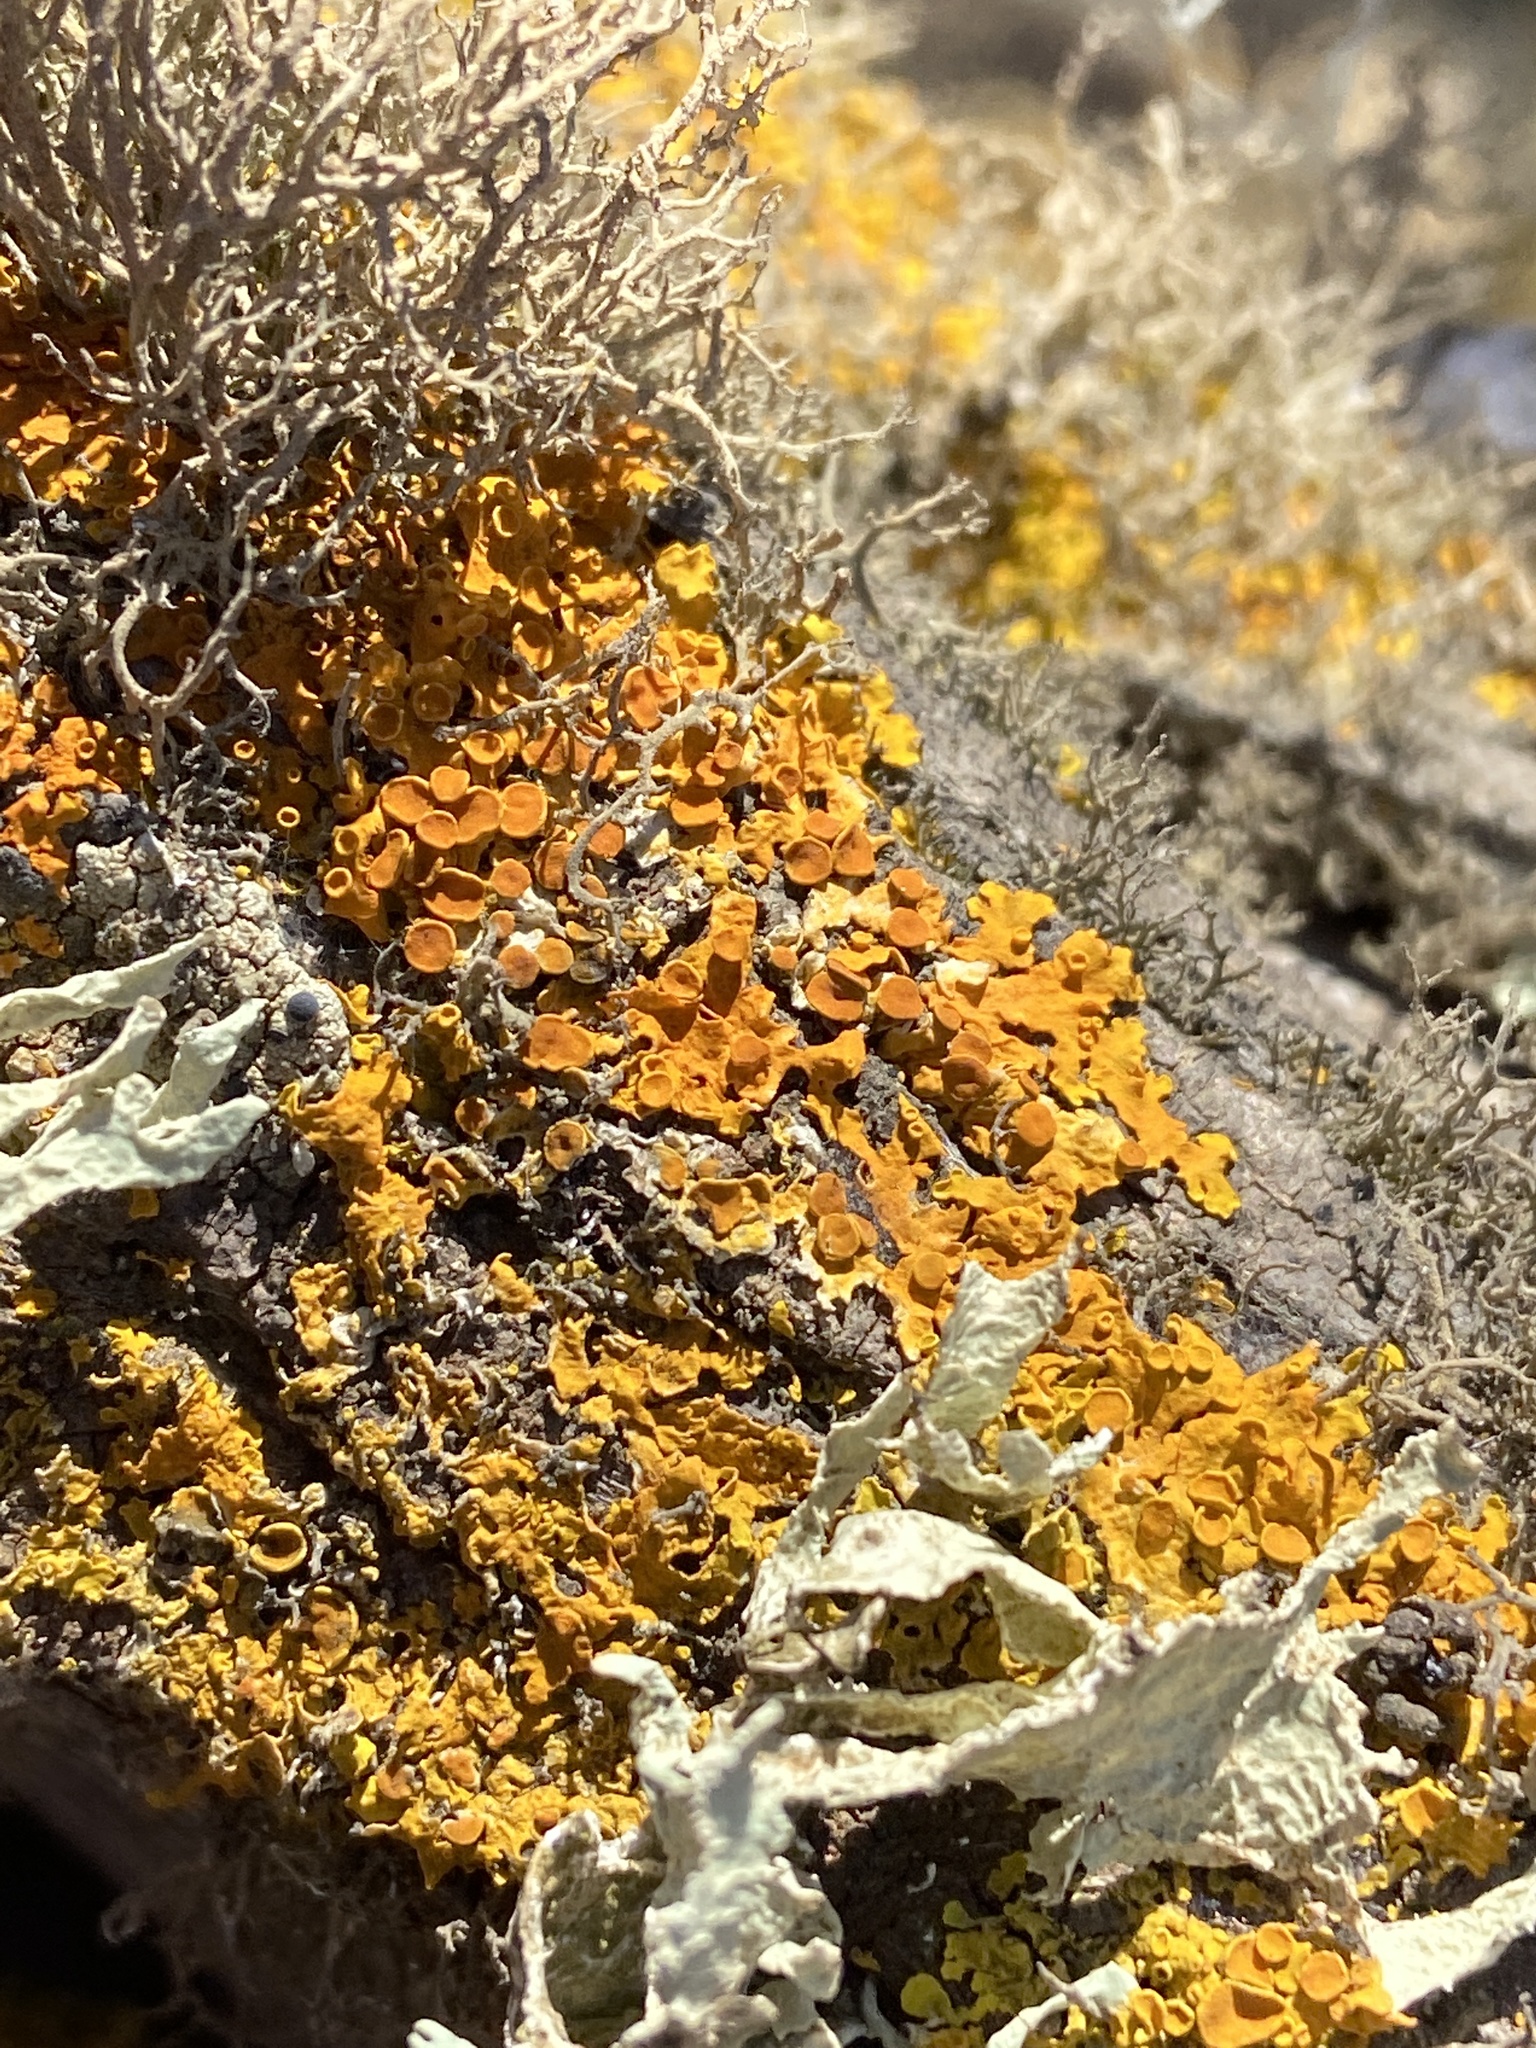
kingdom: Fungi
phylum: Ascomycota
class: Lecanoromycetes
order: Teloschistales
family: Teloschistaceae
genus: Xanthoria
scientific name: Xanthoria parietina
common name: Common orange lichen
